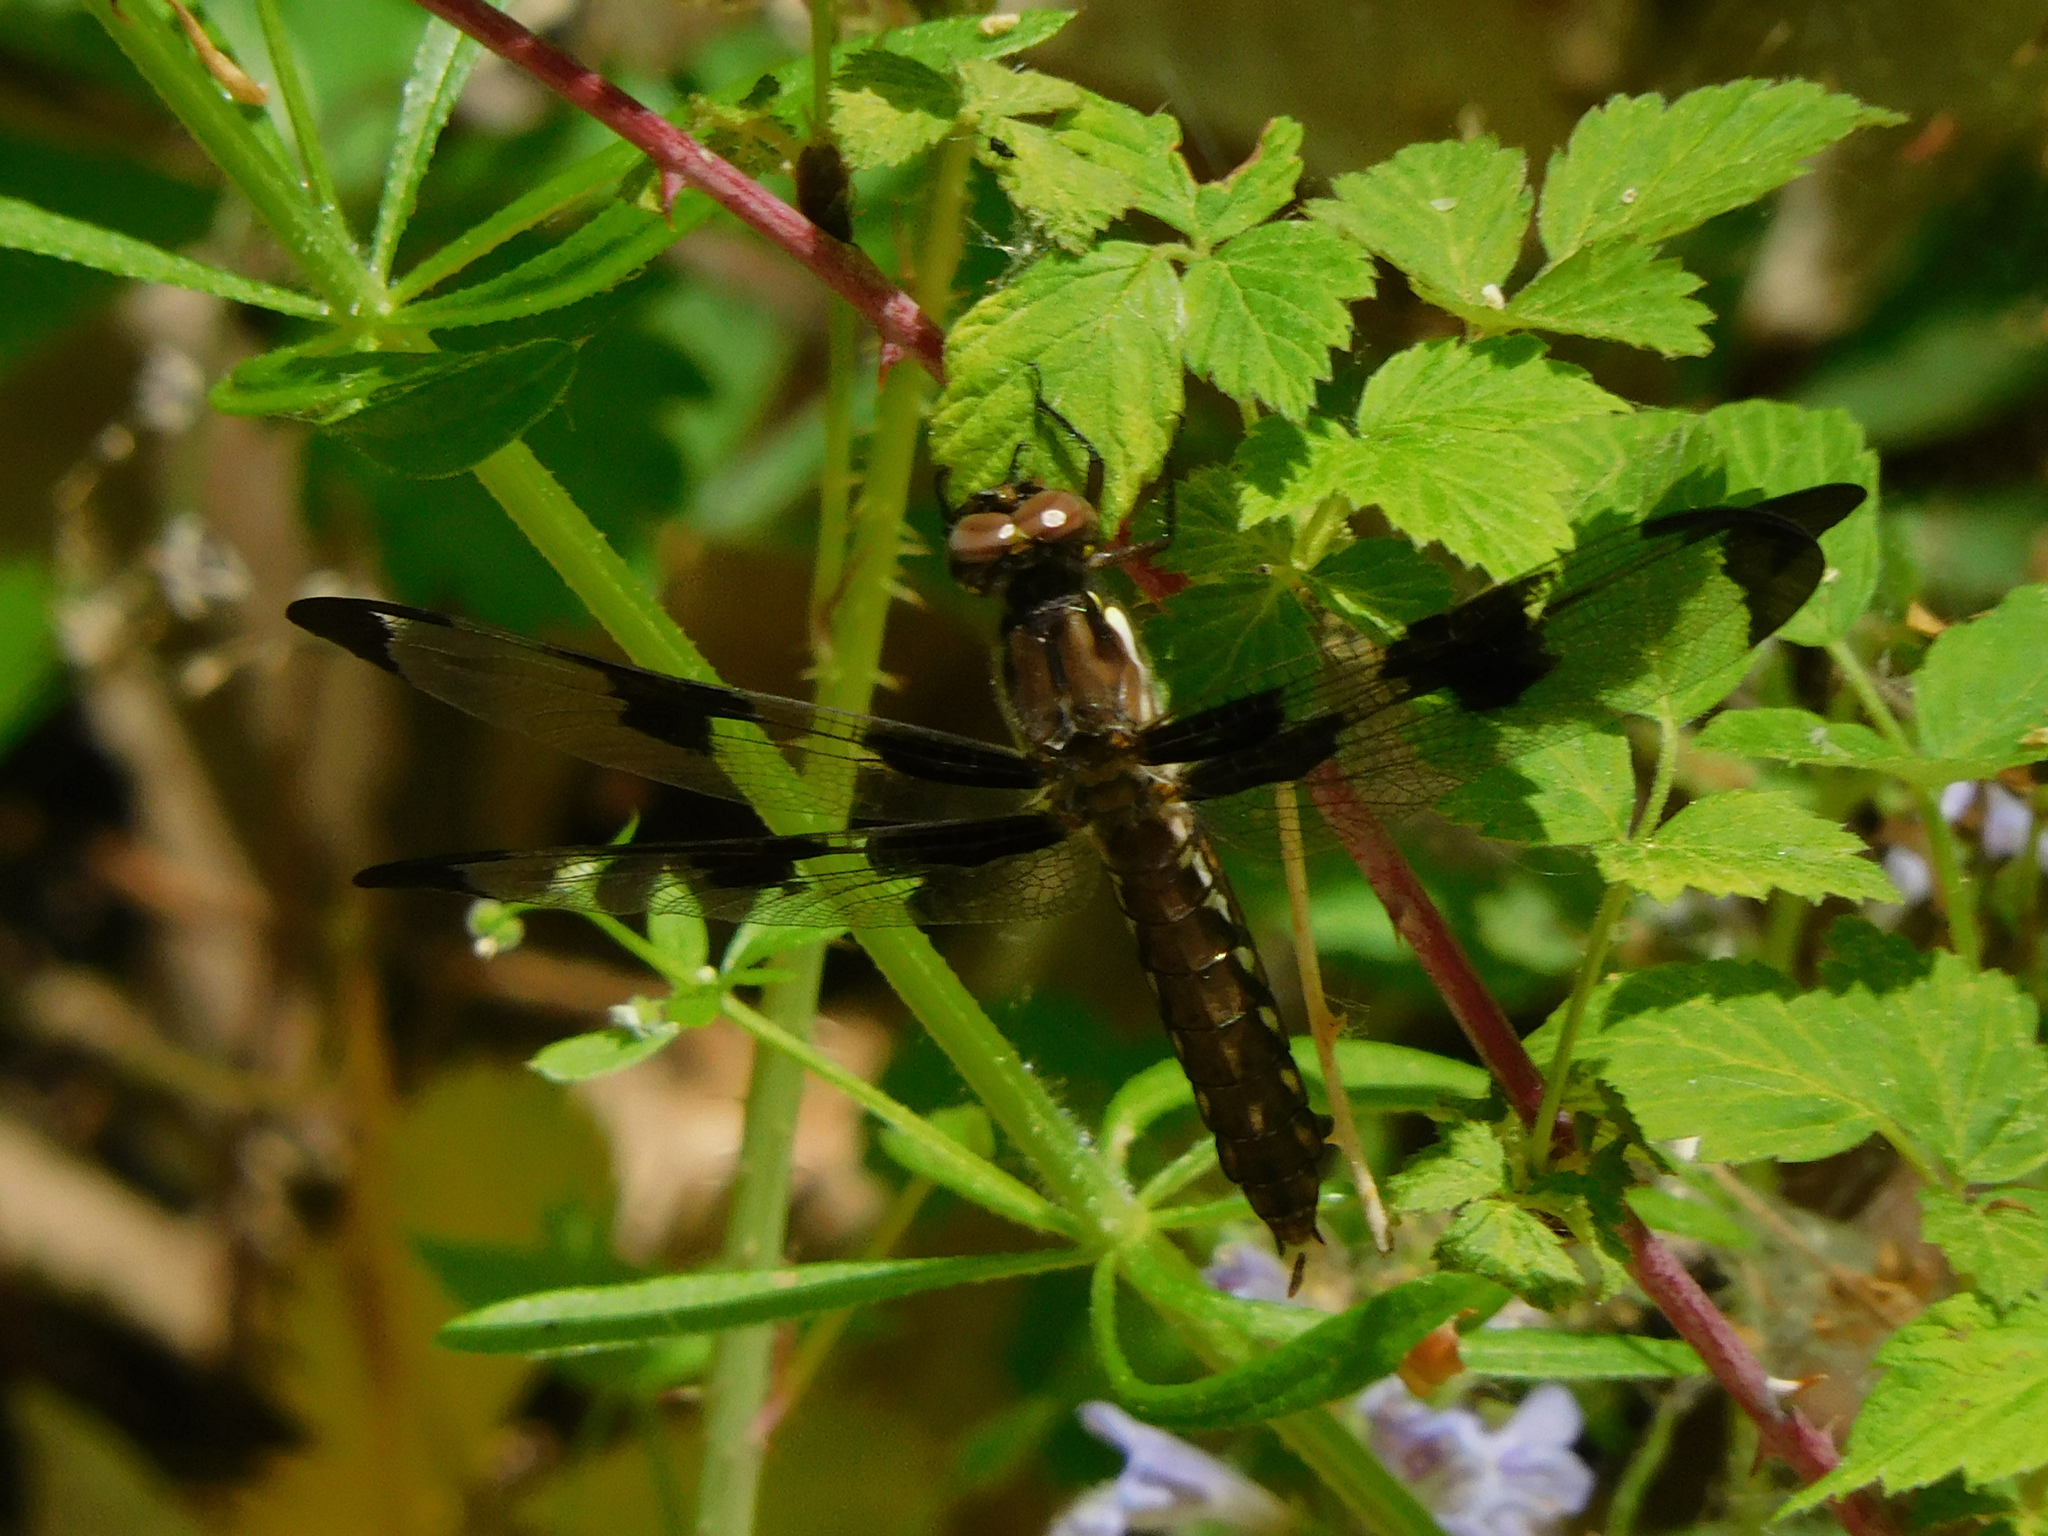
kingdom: Animalia
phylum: Arthropoda
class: Insecta
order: Odonata
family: Libellulidae
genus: Plathemis
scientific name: Plathemis lydia
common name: Common whitetail
